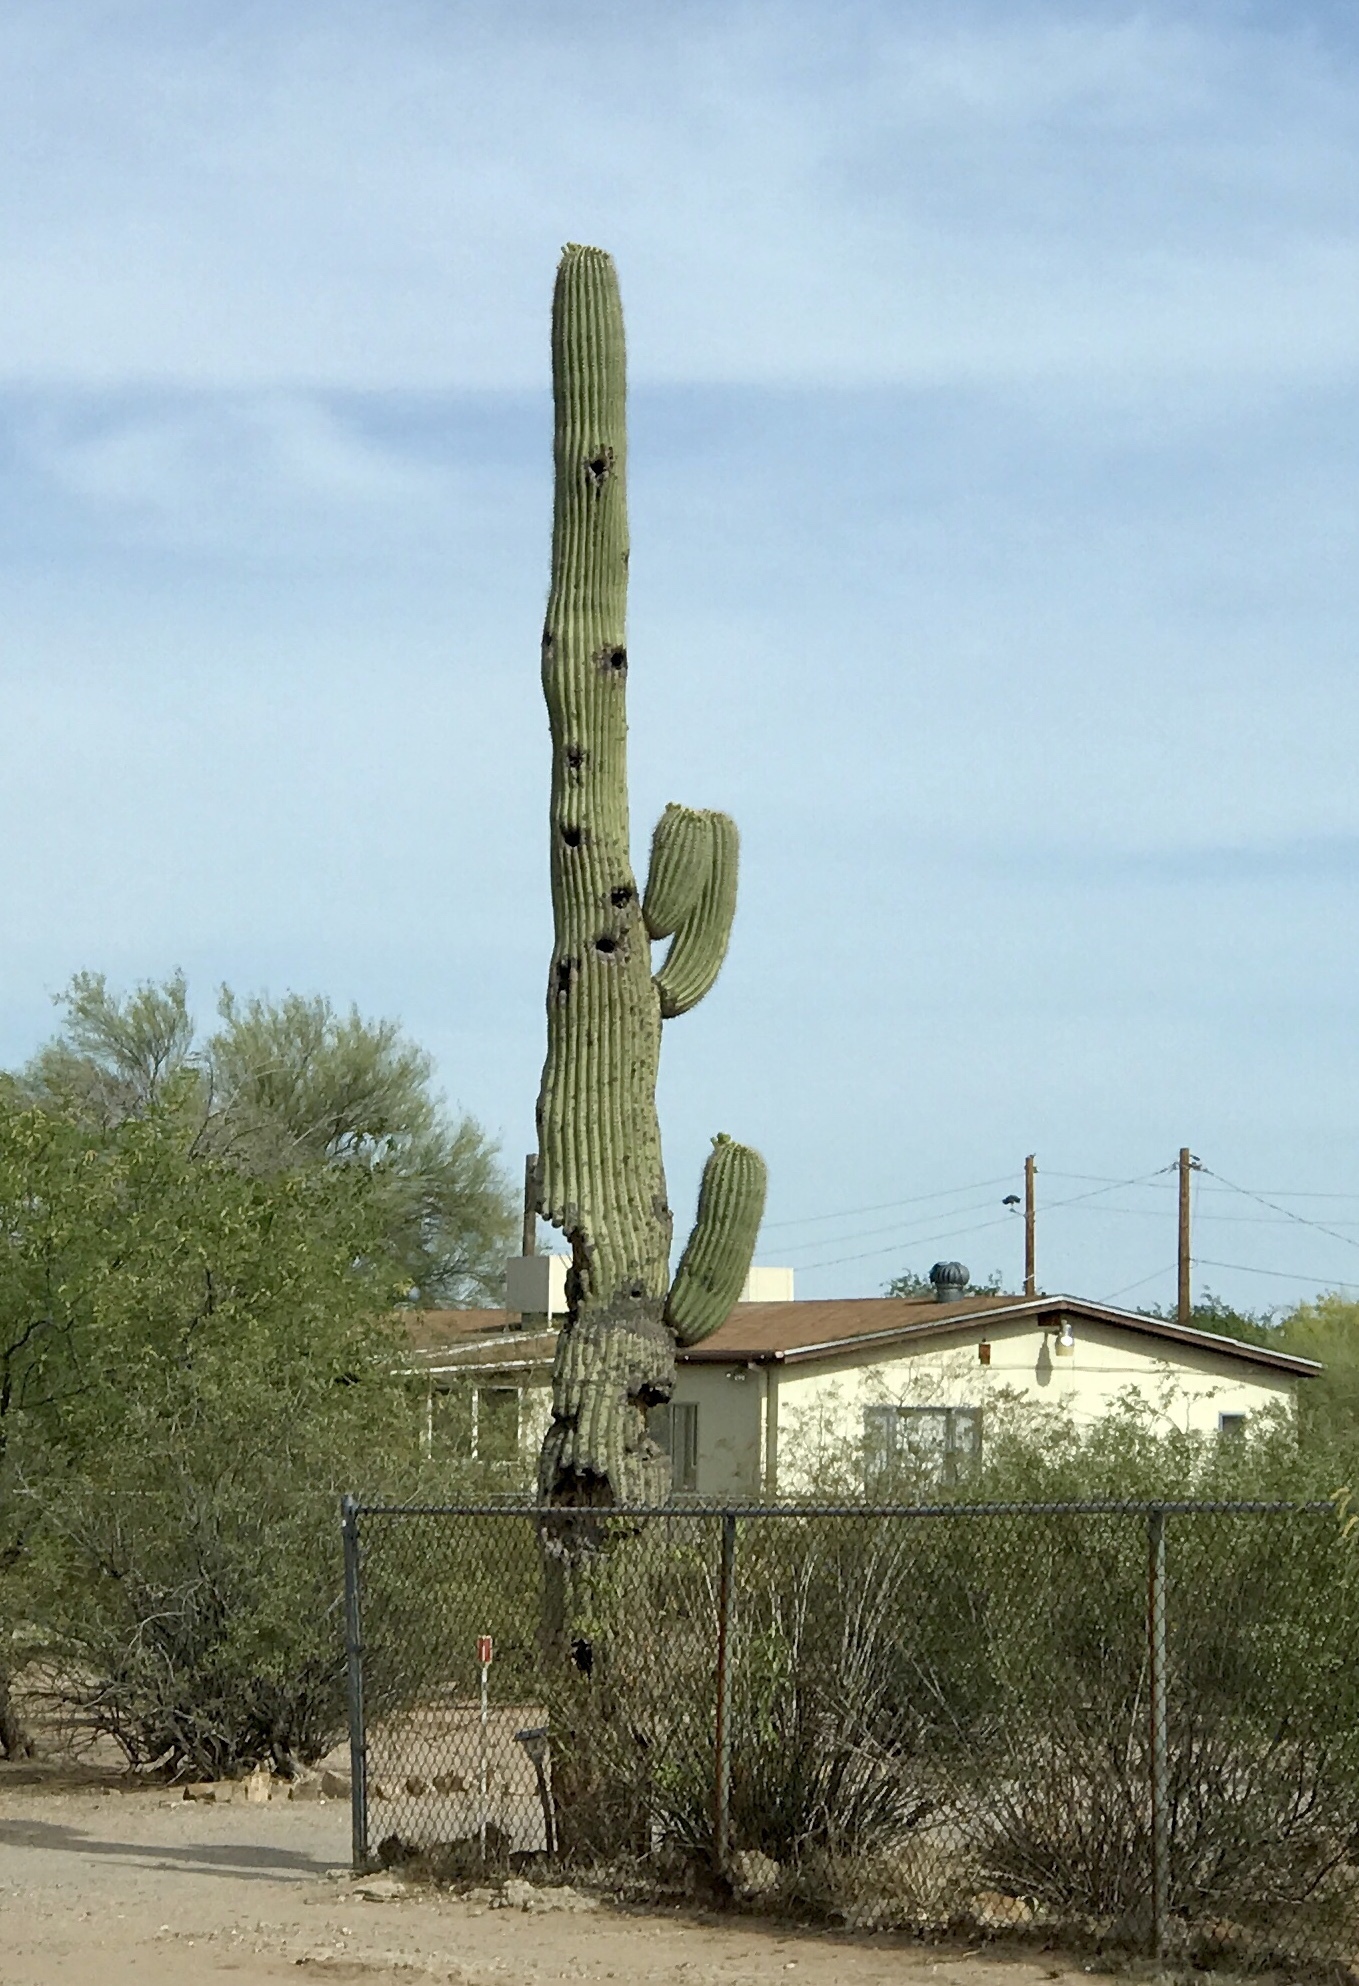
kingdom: Plantae
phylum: Tracheophyta
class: Magnoliopsida
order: Caryophyllales
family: Cactaceae
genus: Carnegiea
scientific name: Carnegiea gigantea
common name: Saguaro
